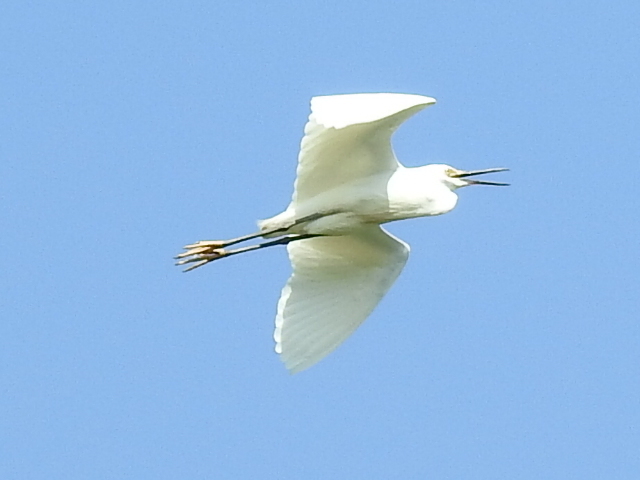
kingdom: Animalia
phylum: Chordata
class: Aves
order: Pelecaniformes
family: Ardeidae
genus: Egretta
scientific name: Egretta thula
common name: Snowy egret
